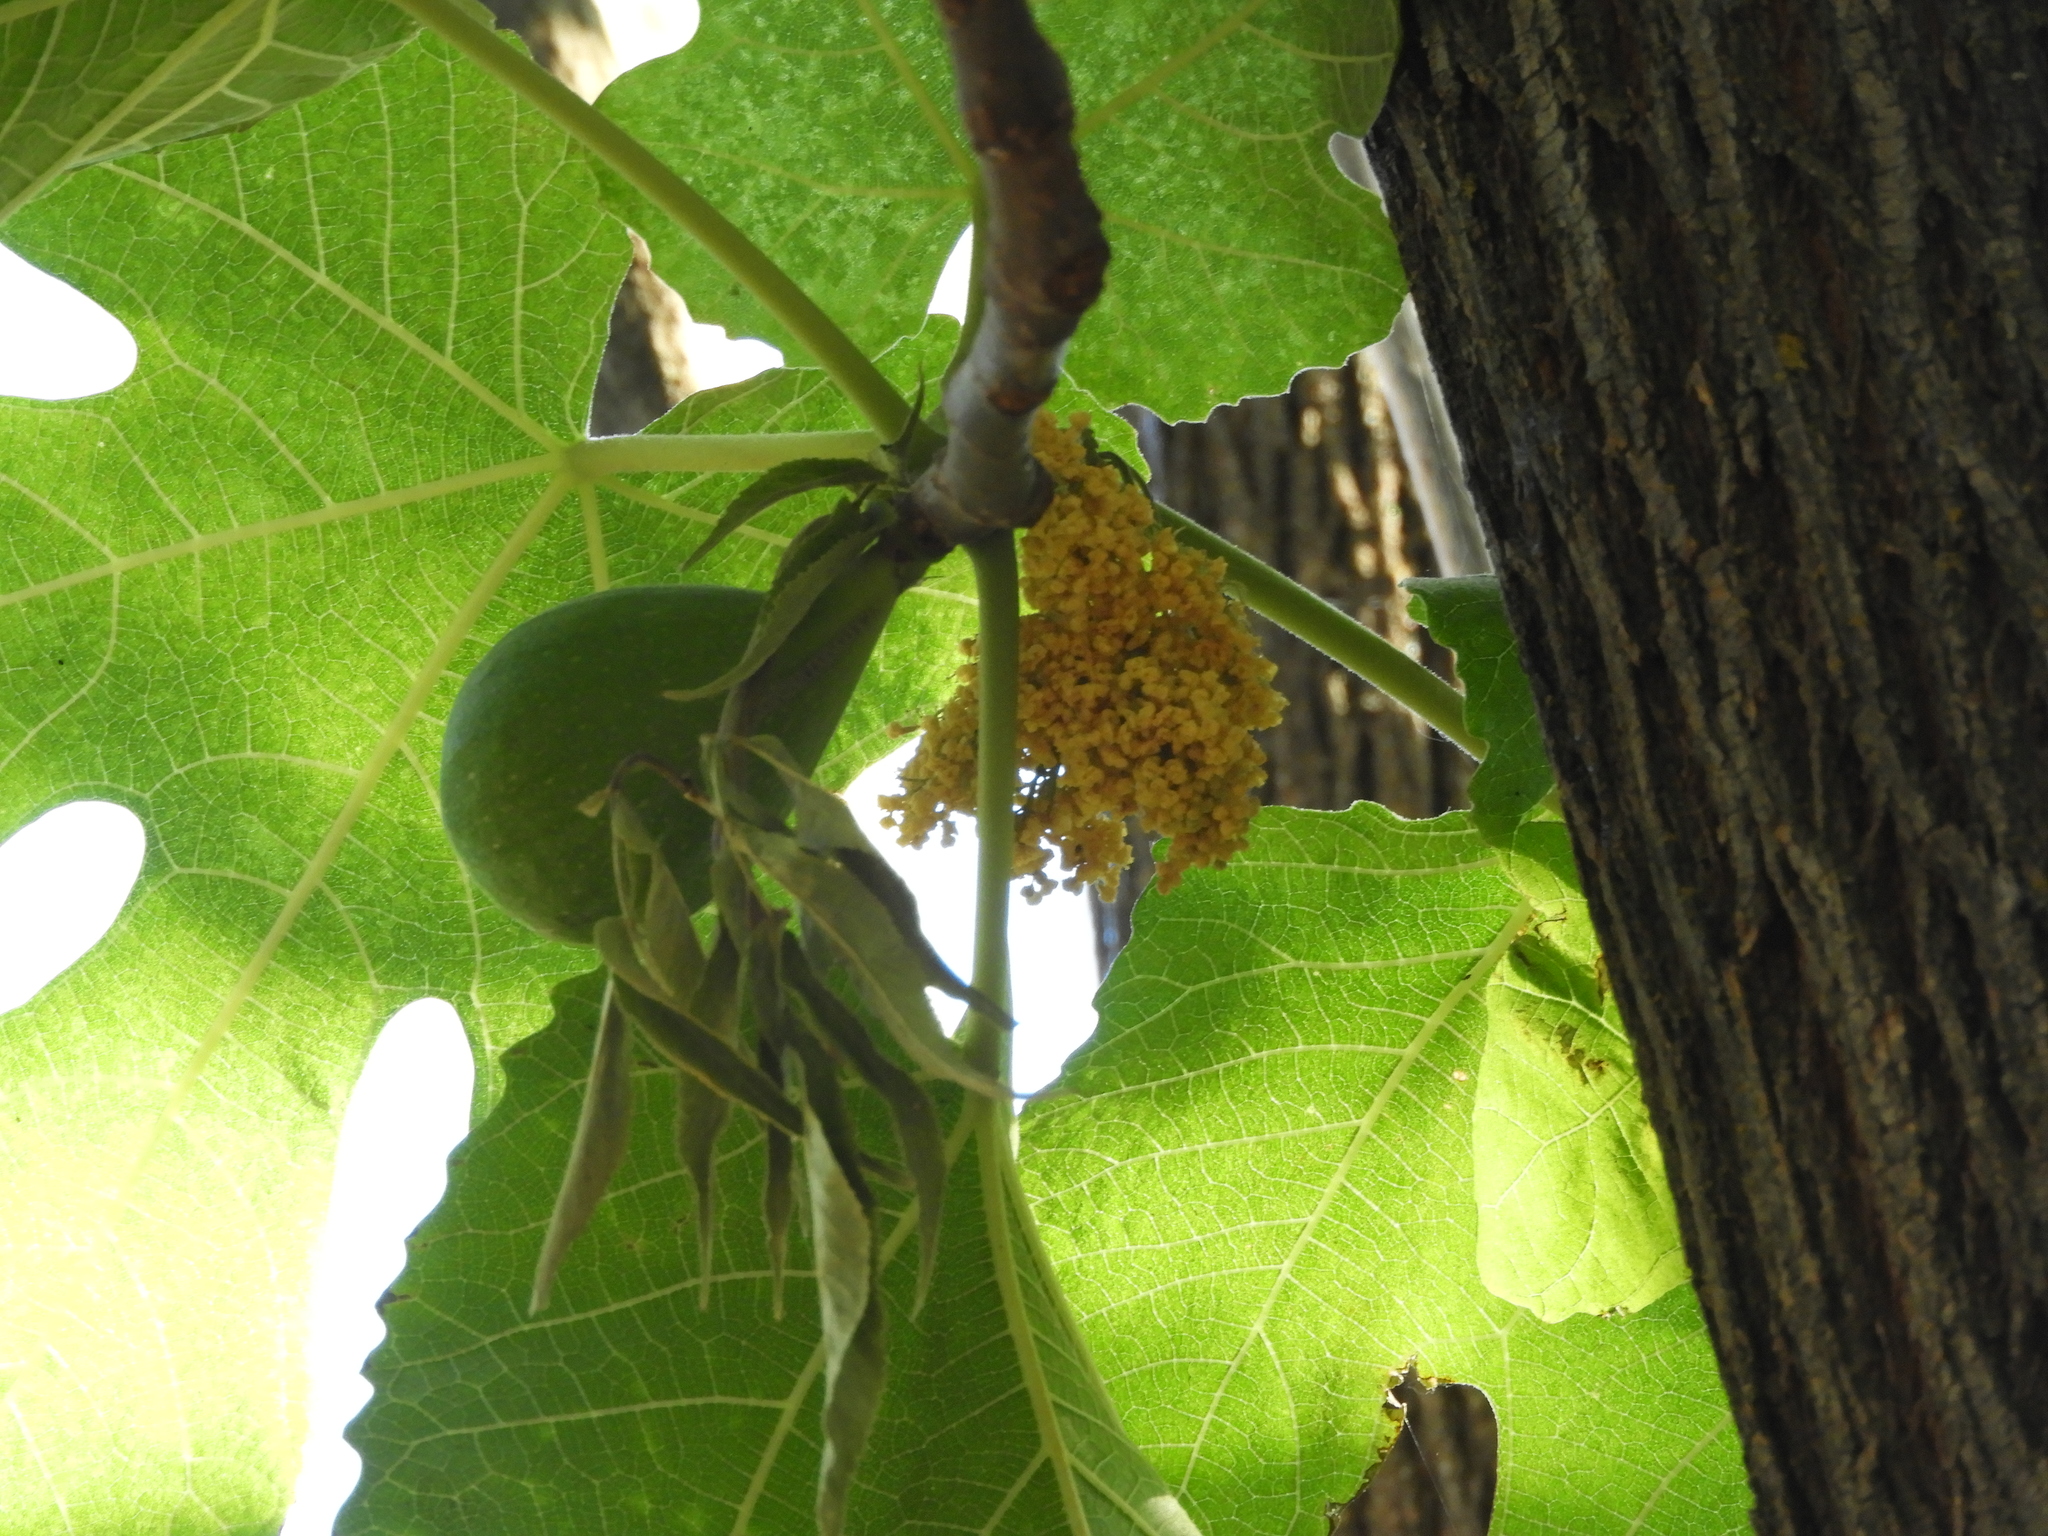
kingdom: Plantae
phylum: Tracheophyta
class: Magnoliopsida
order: Rosales
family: Moraceae
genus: Ficus
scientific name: Ficus carica
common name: Fig
